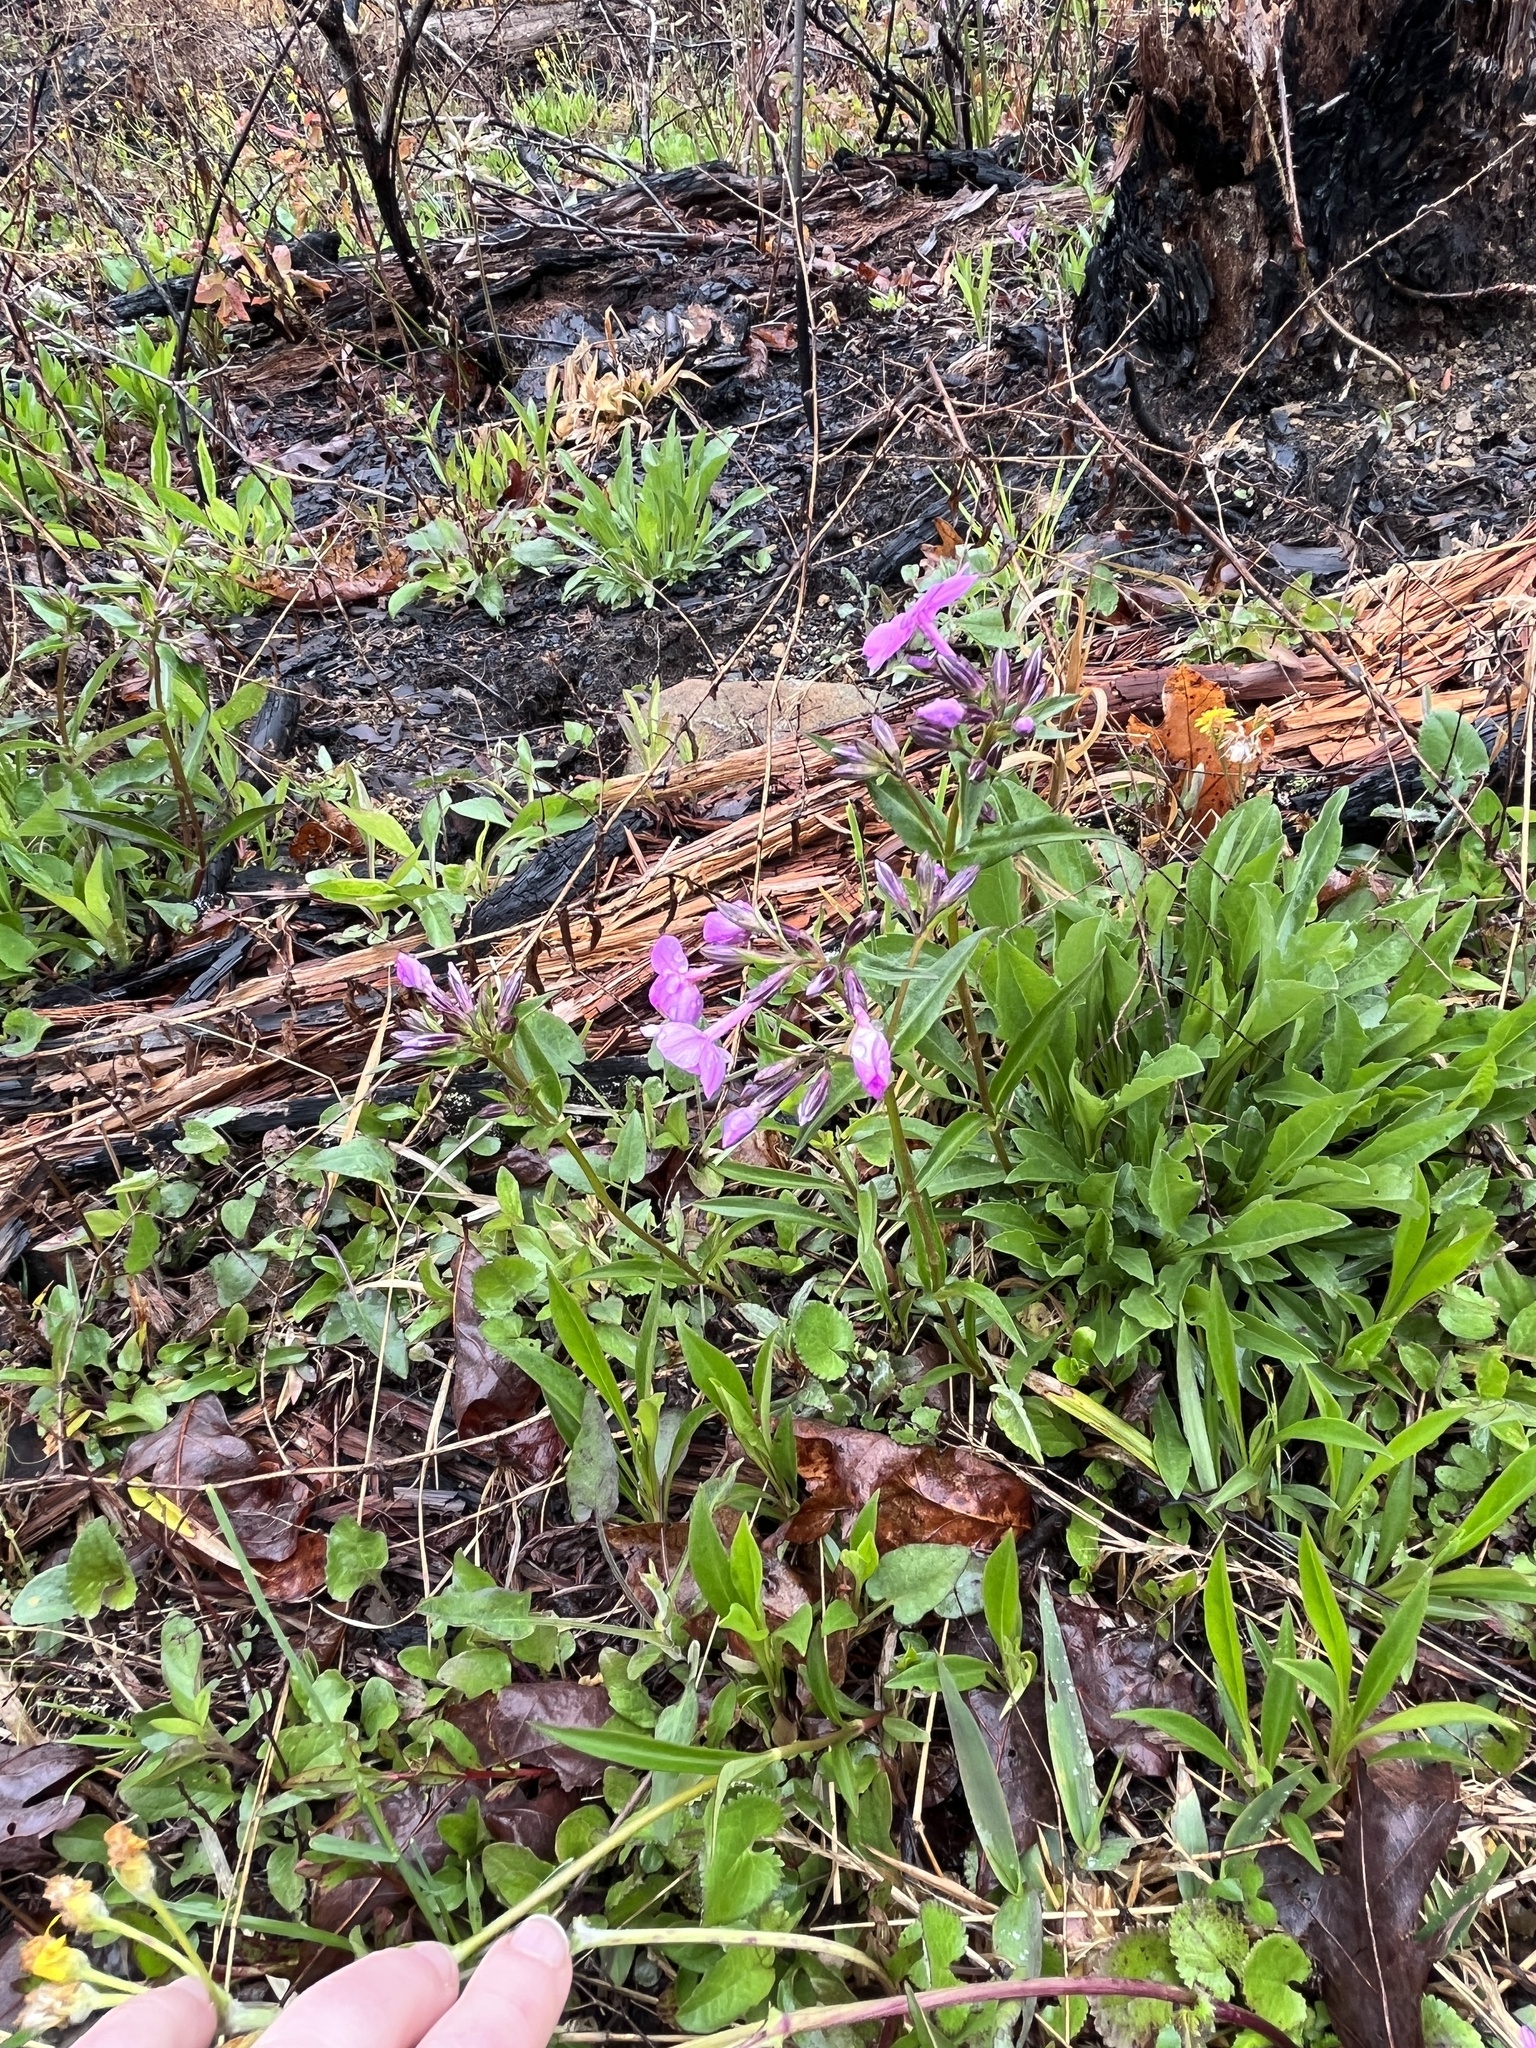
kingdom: Plantae
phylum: Tracheophyta
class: Magnoliopsida
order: Ericales
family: Polemoniaceae
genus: Phlox
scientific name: Phlox ovata
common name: Mountain phlox
